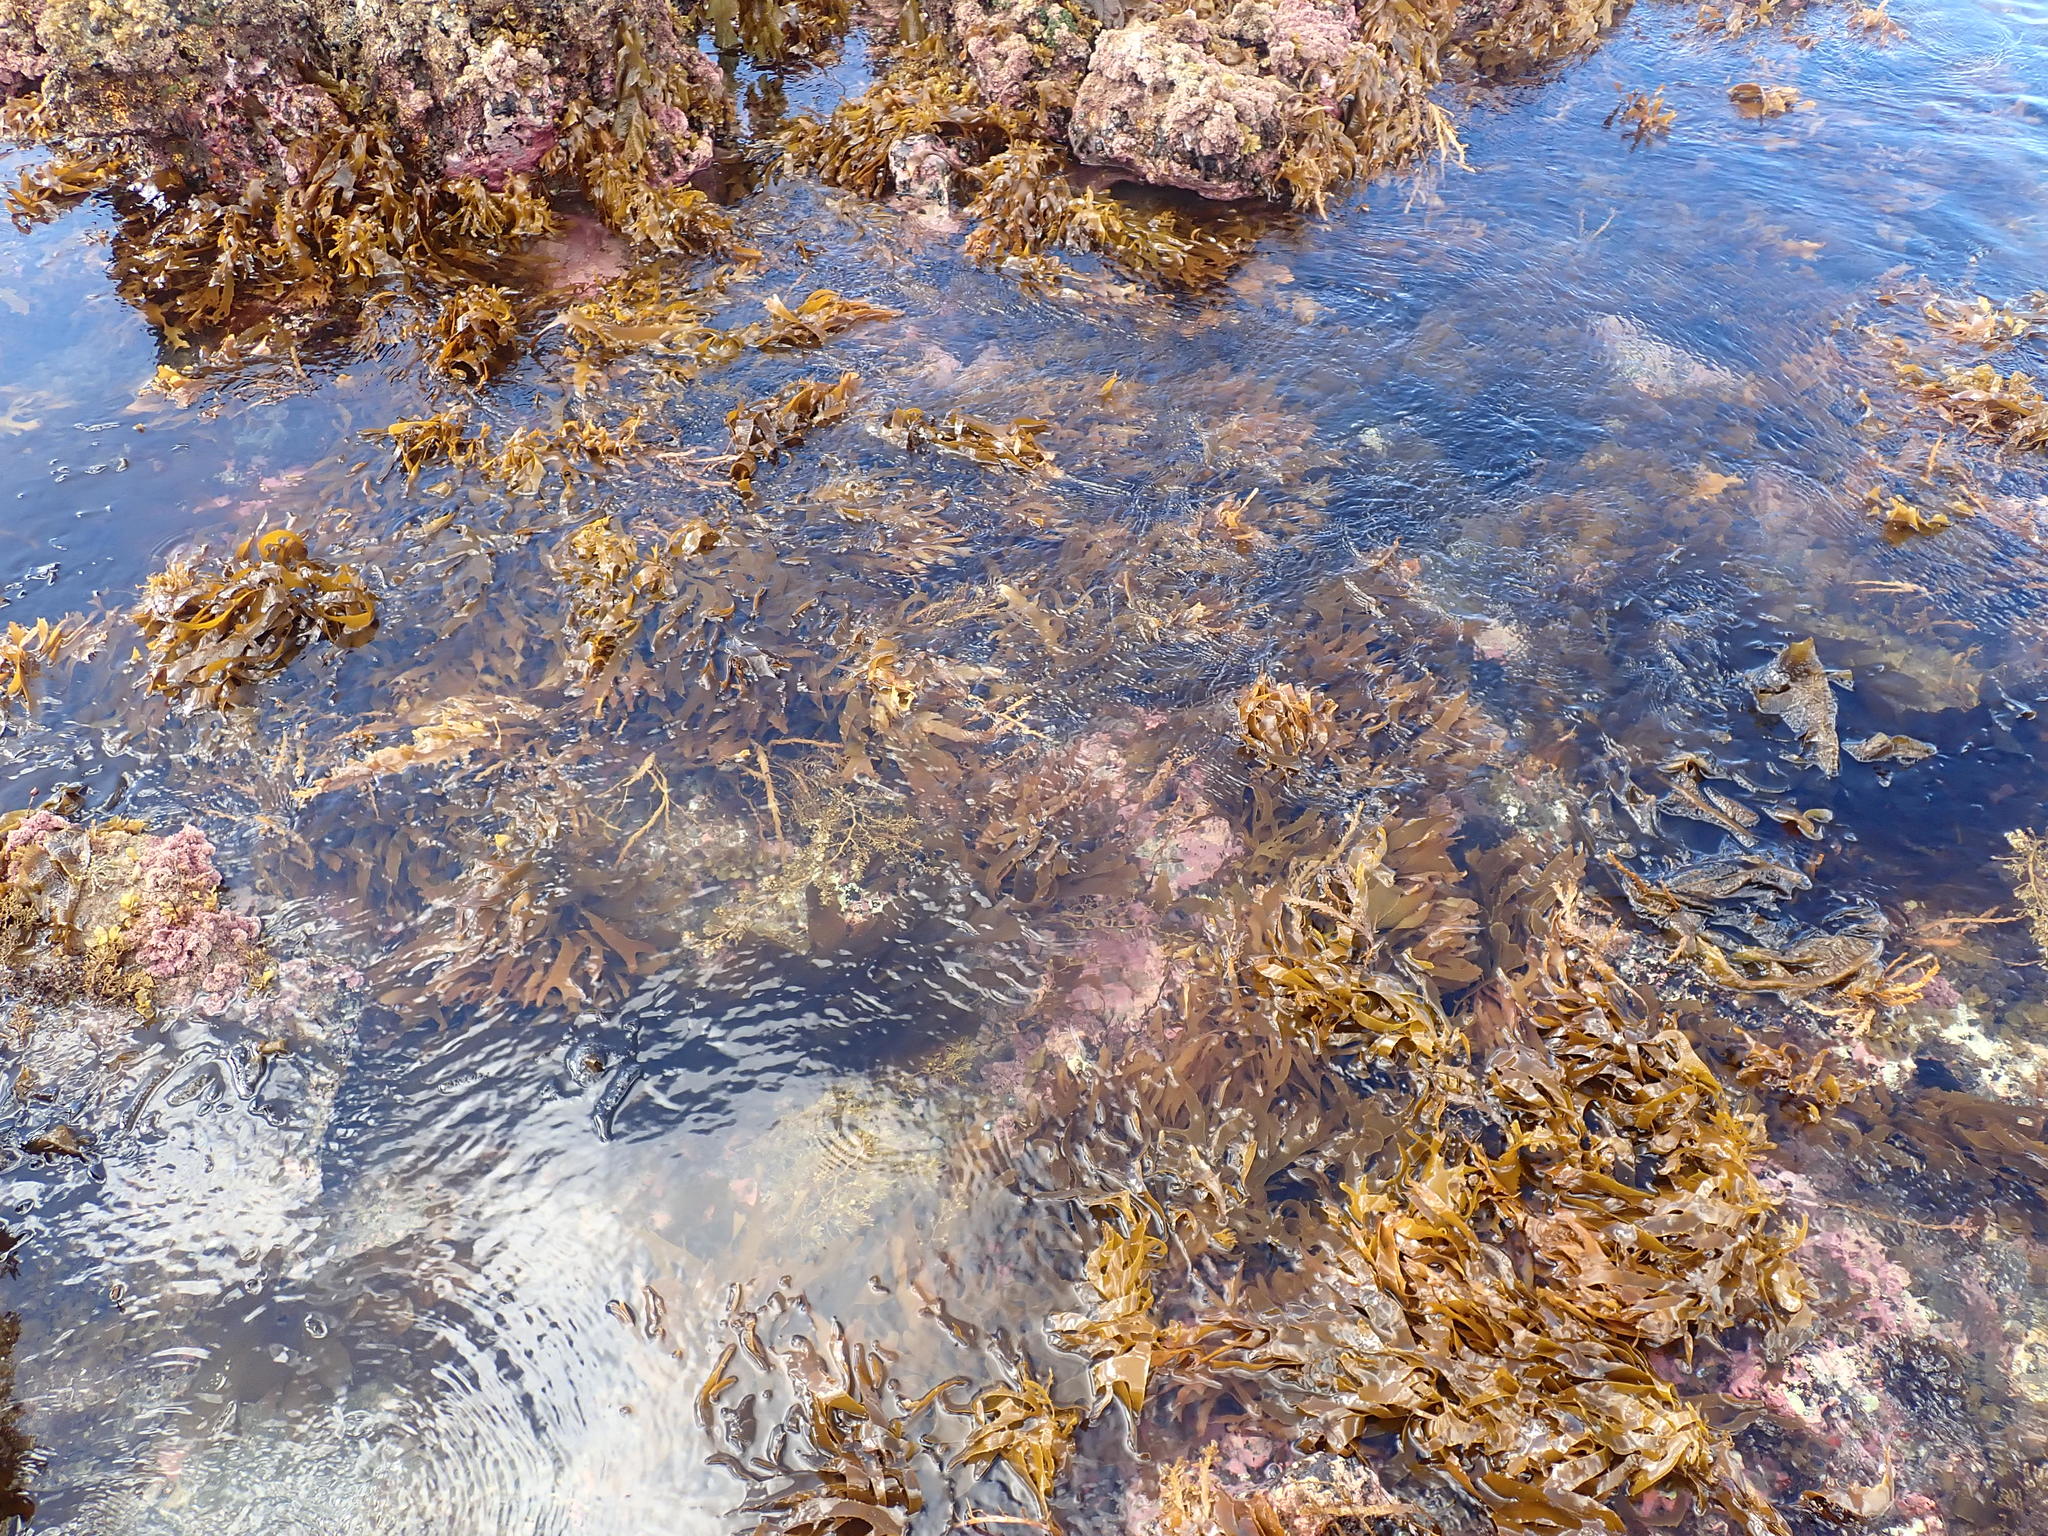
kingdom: Chromista
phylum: Ochrophyta
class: Phaeophyceae
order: Laminariales
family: Alariaceae
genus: Undaria
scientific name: Undaria pinnatifida
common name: Asian kelp
